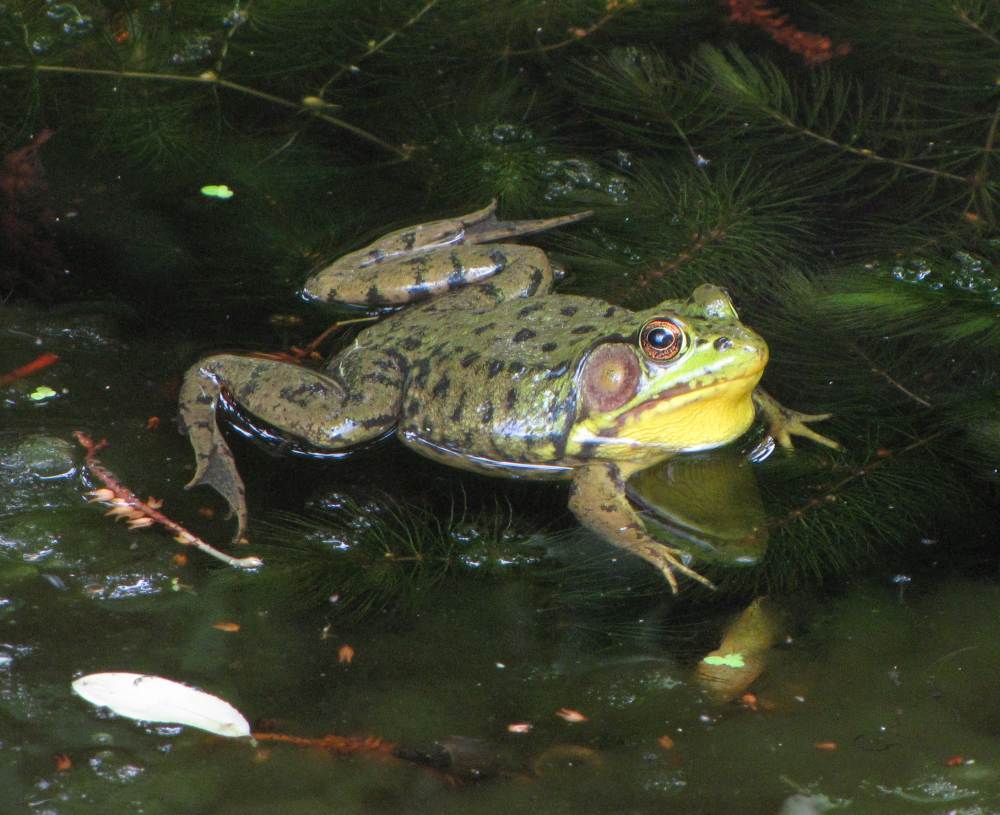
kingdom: Animalia
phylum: Chordata
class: Amphibia
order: Anura
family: Ranidae
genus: Lithobates
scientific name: Lithobates clamitans
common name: Green frog
